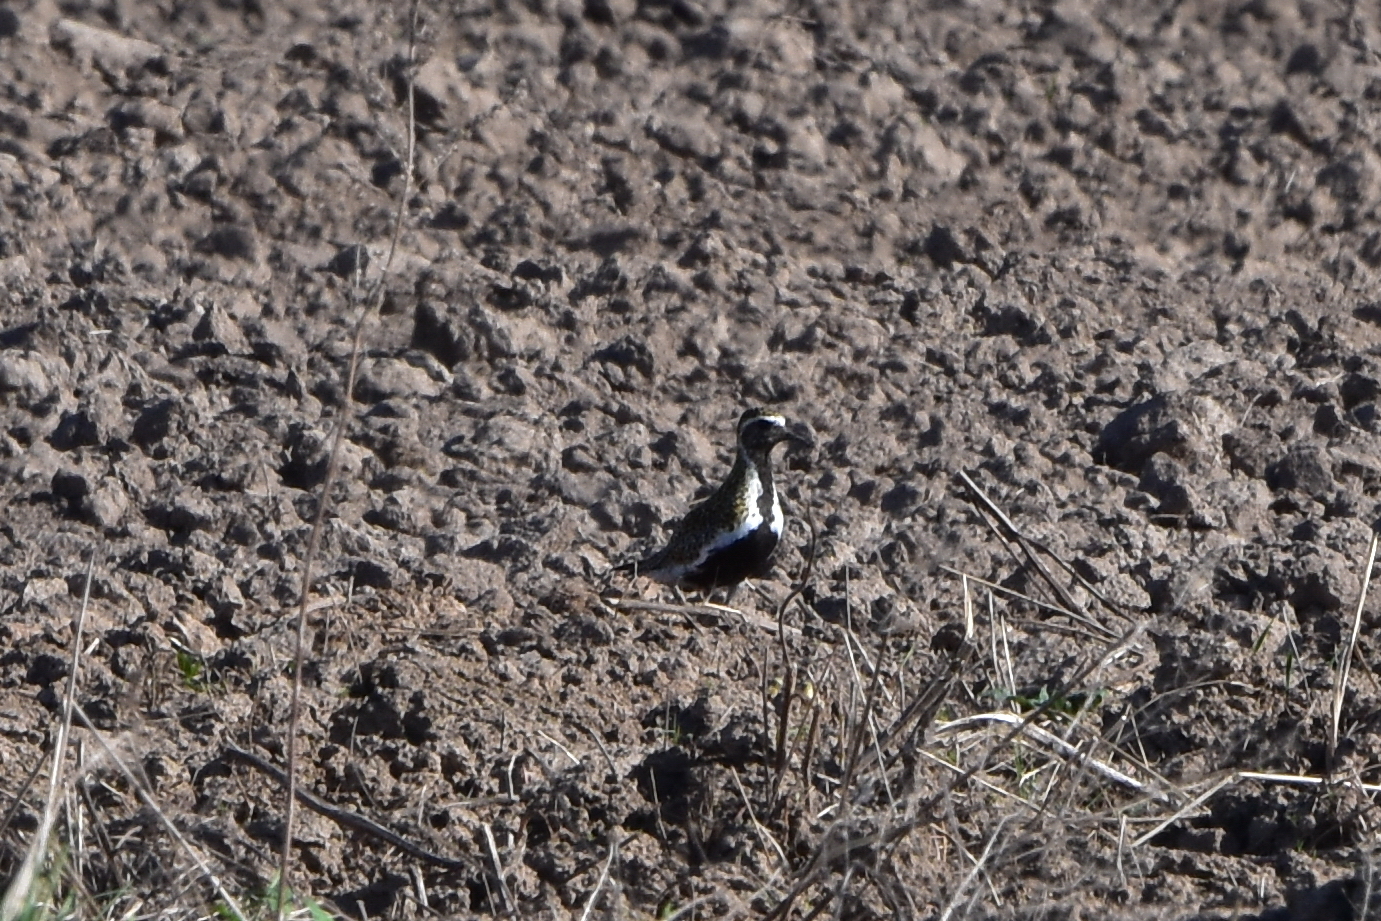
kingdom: Animalia
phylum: Chordata
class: Aves
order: Charadriiformes
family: Charadriidae
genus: Pluvialis
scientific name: Pluvialis apricaria
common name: European golden plover
